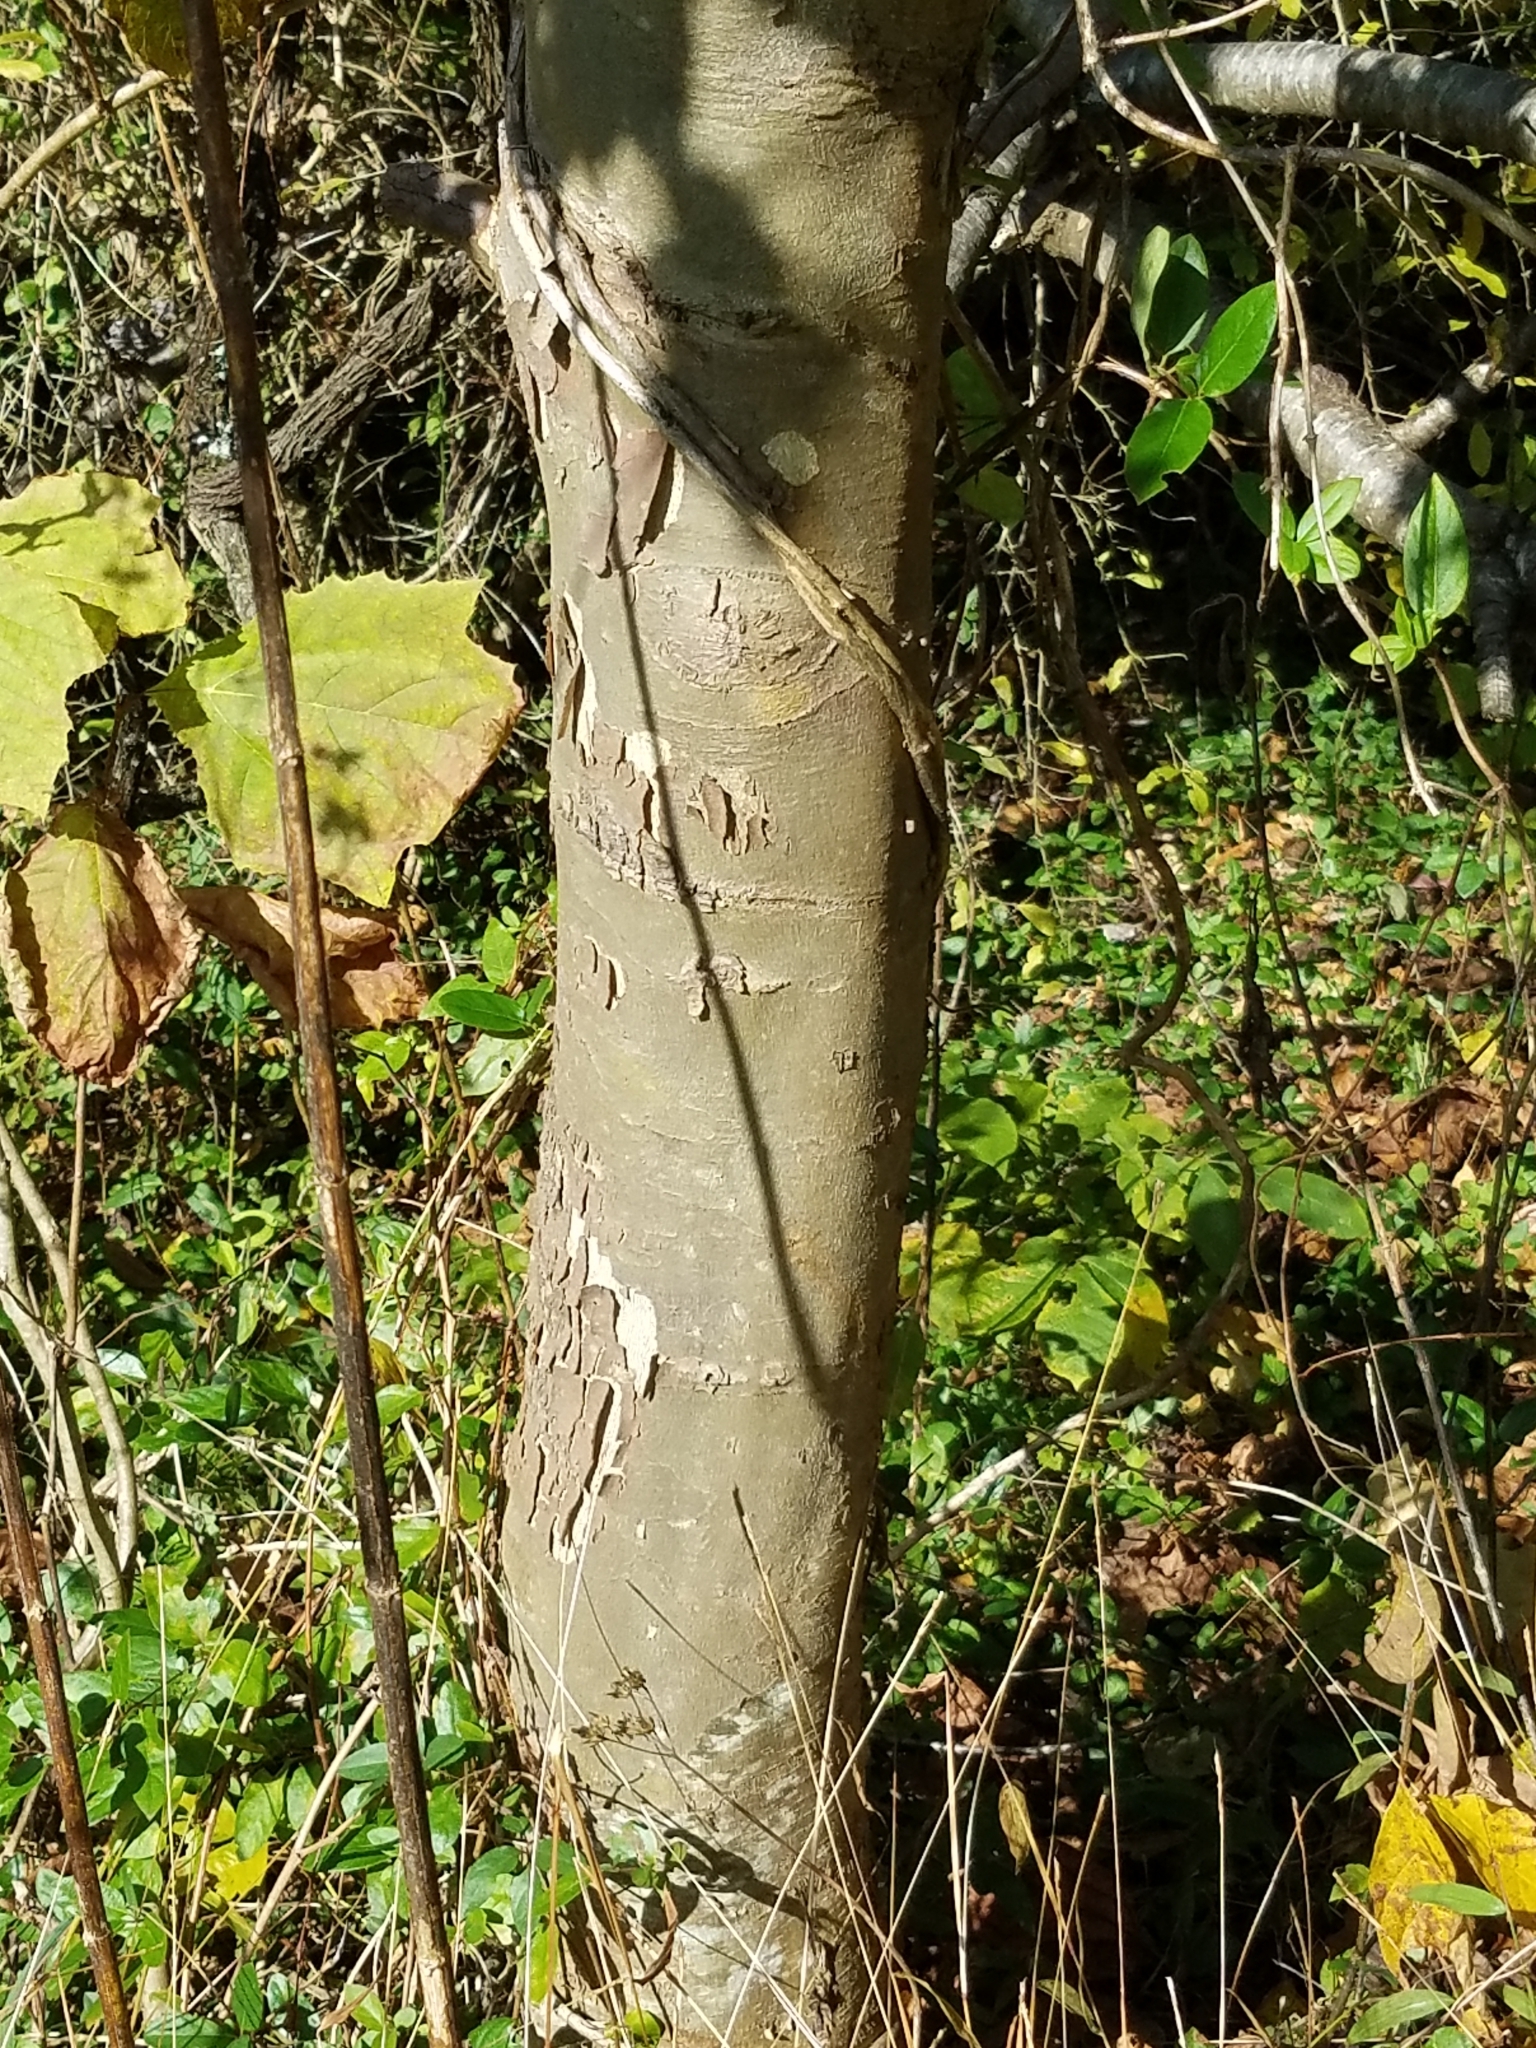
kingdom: Plantae
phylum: Tracheophyta
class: Magnoliopsida
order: Proteales
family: Platanaceae
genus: Platanus
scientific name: Platanus occidentalis
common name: American sycamore
